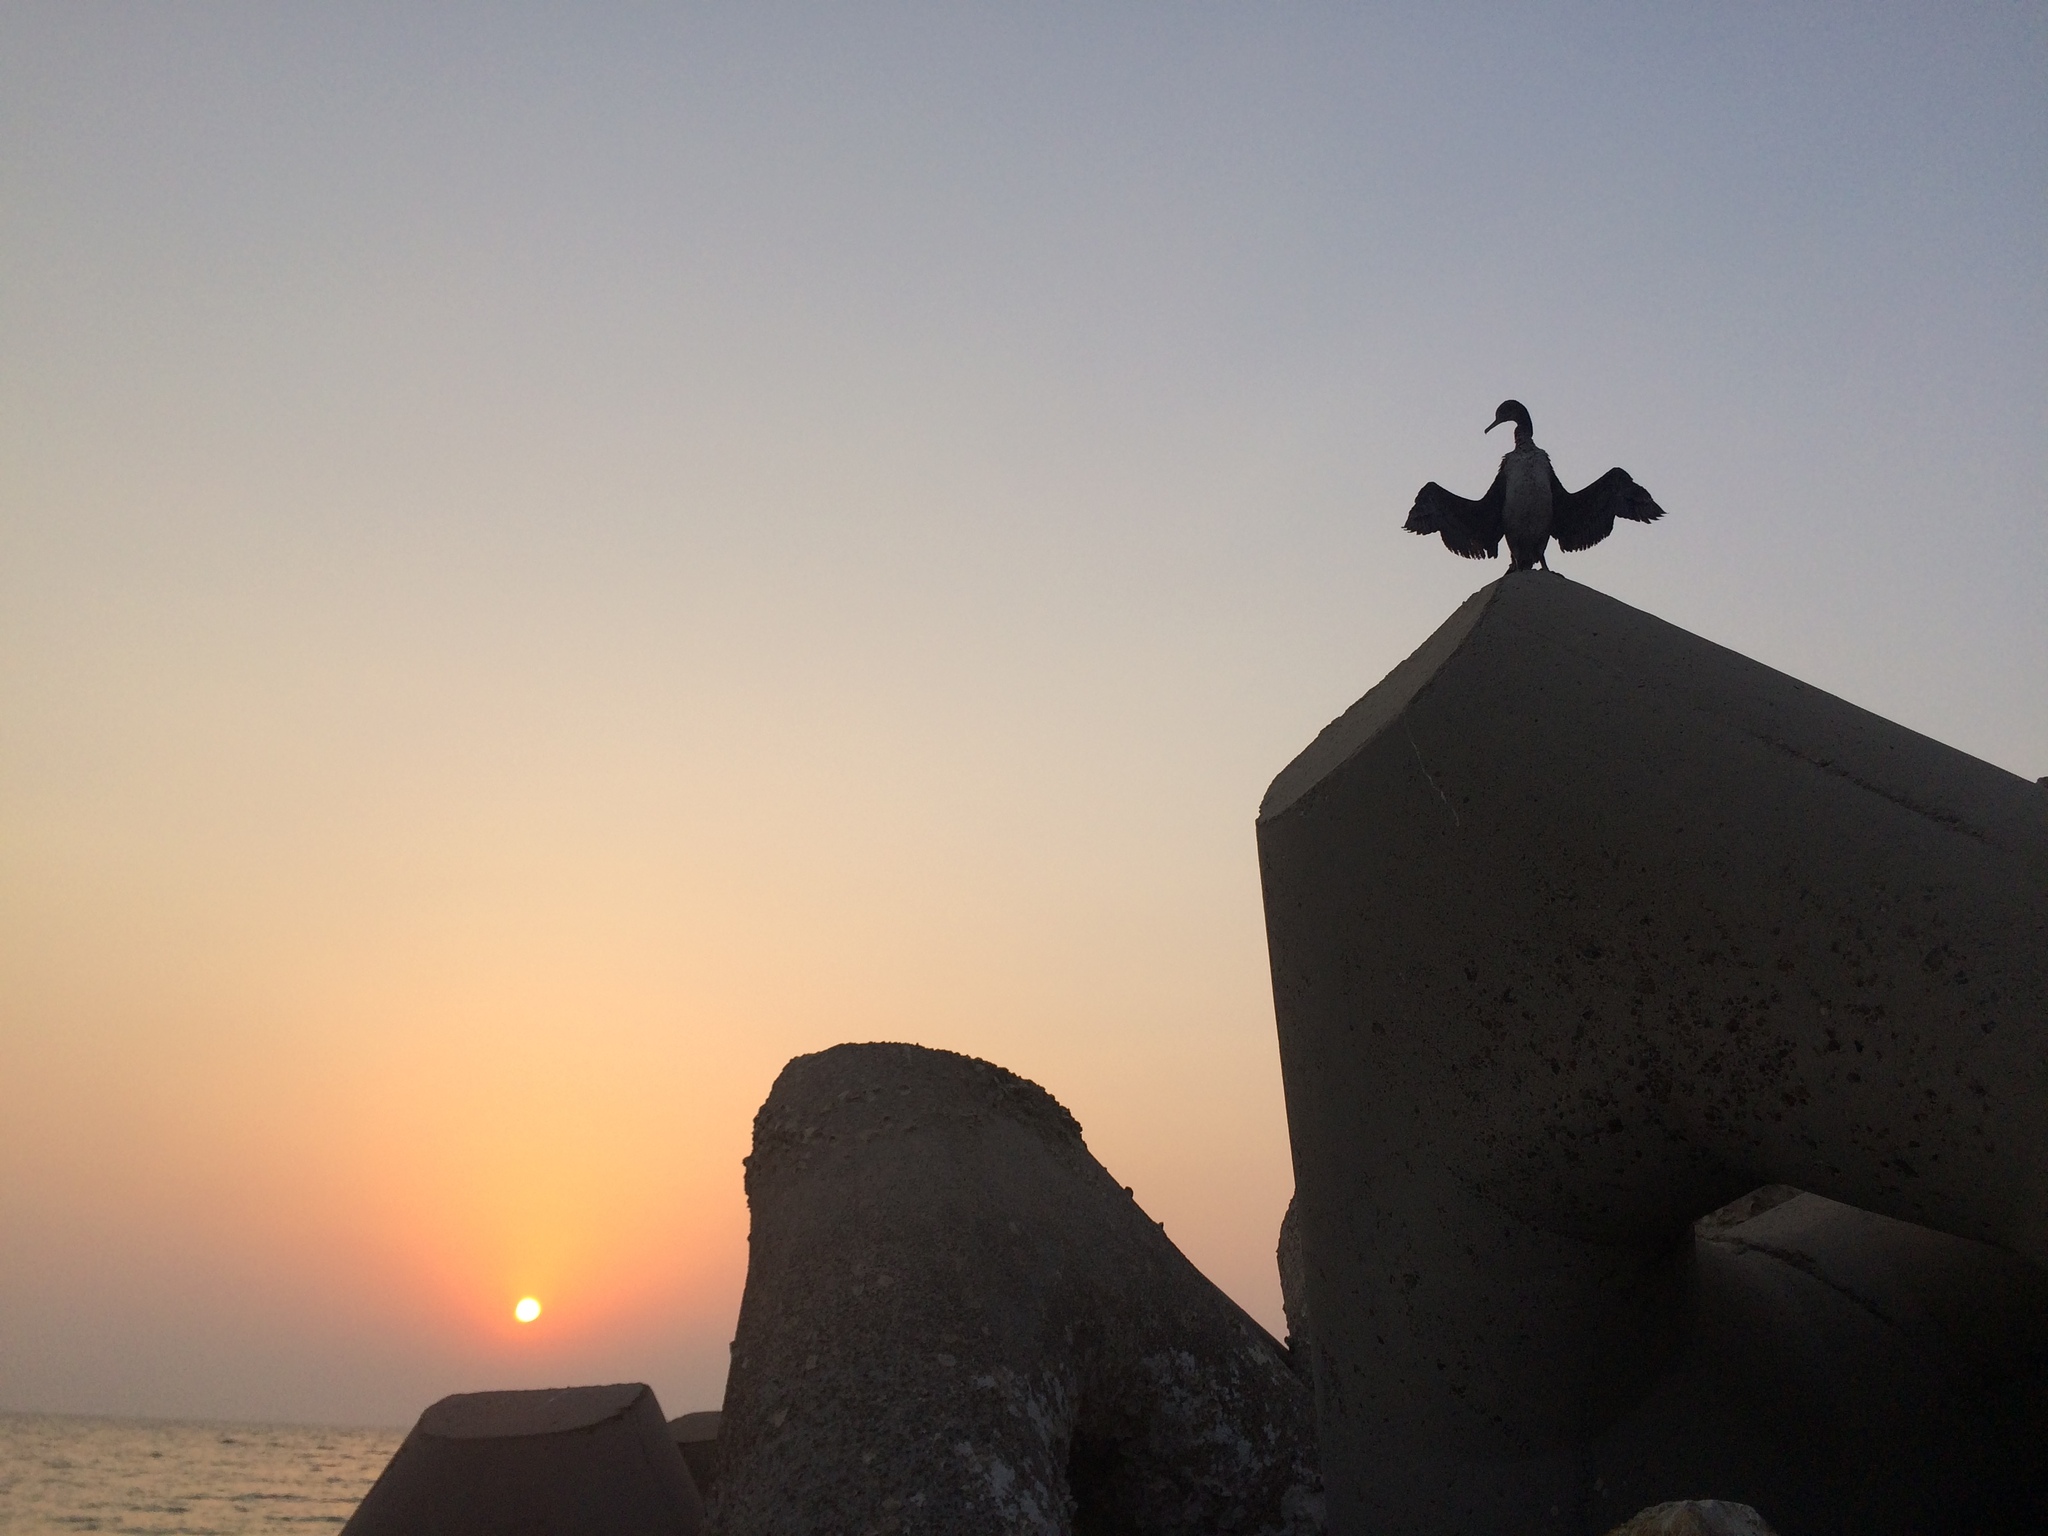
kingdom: Animalia
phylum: Chordata
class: Aves
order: Suliformes
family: Phalacrocoracidae
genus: Phalacrocorax
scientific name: Phalacrocorax nigrogularis
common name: Socotra cormorant
